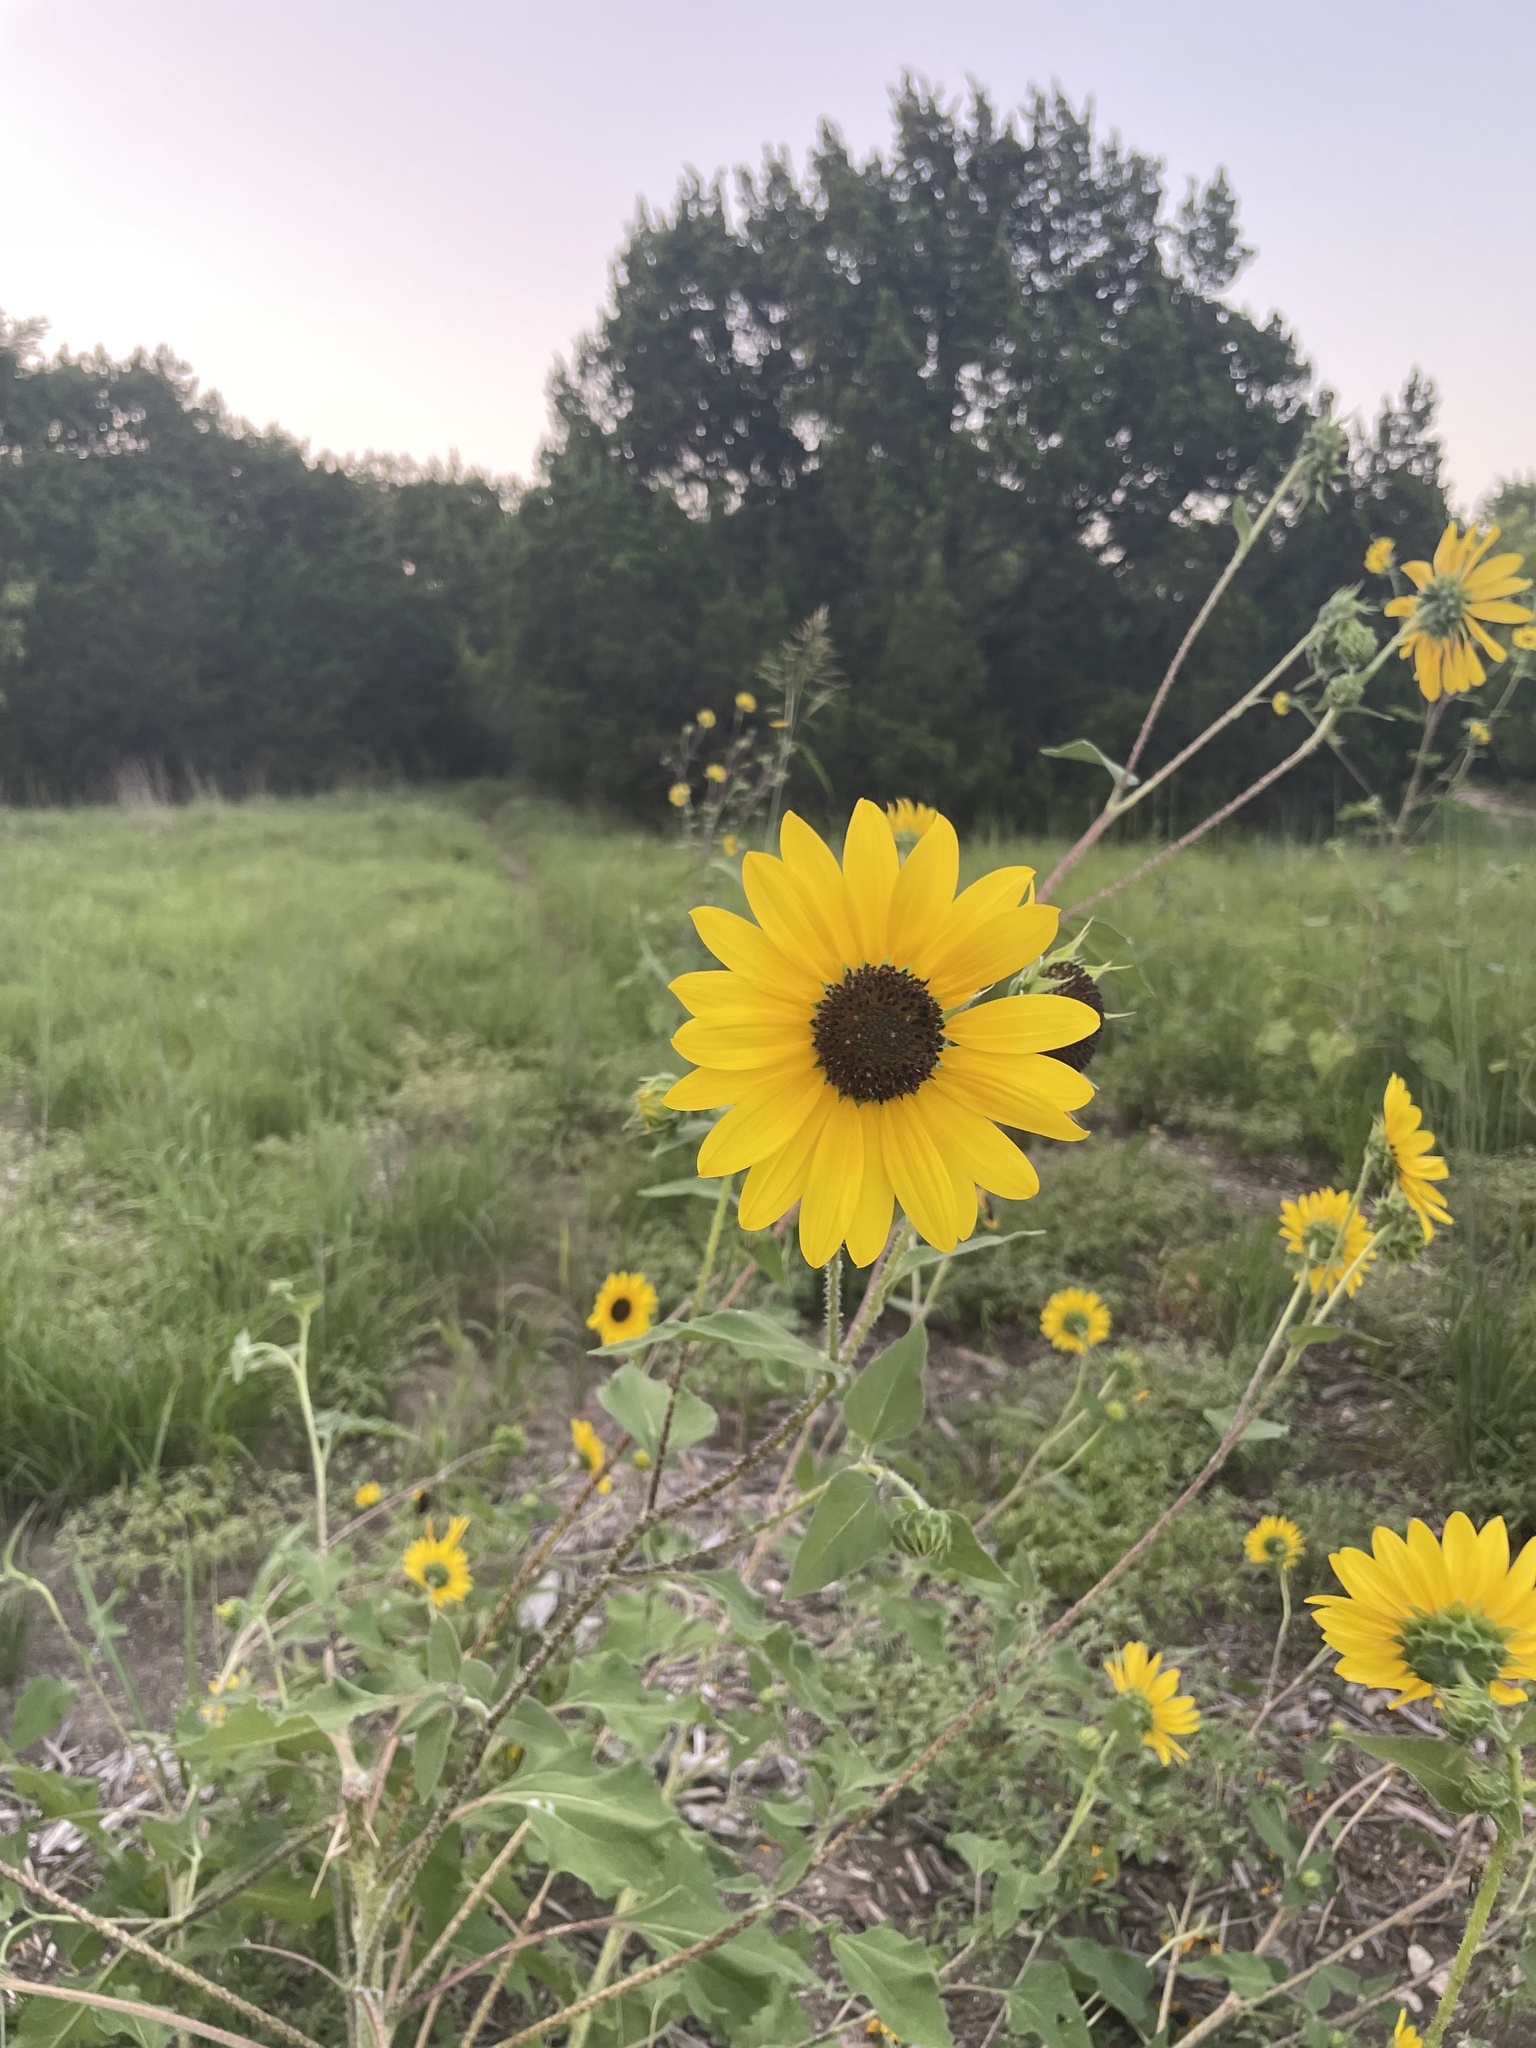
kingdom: Plantae
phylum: Tracheophyta
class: Magnoliopsida
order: Asterales
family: Asteraceae
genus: Helianthus
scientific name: Helianthus annuus
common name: Sunflower
